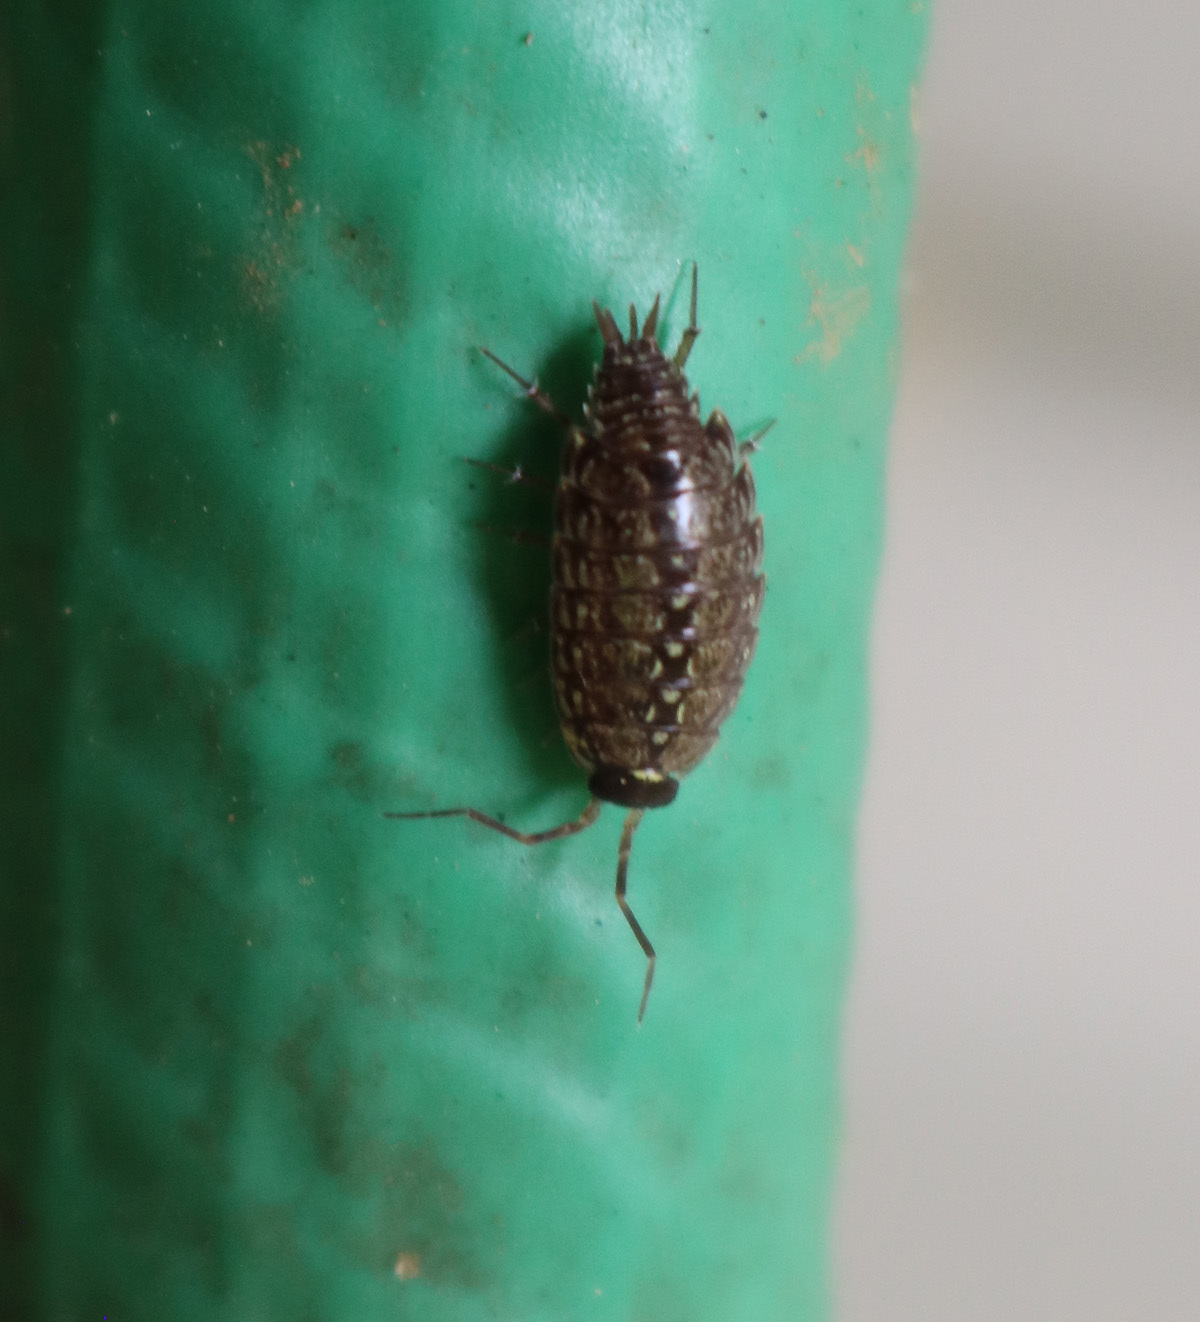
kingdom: Animalia
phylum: Arthropoda
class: Malacostraca
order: Isopoda
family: Philosciidae
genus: Philoscia
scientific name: Philoscia muscorum
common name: Common striped woodlouse
